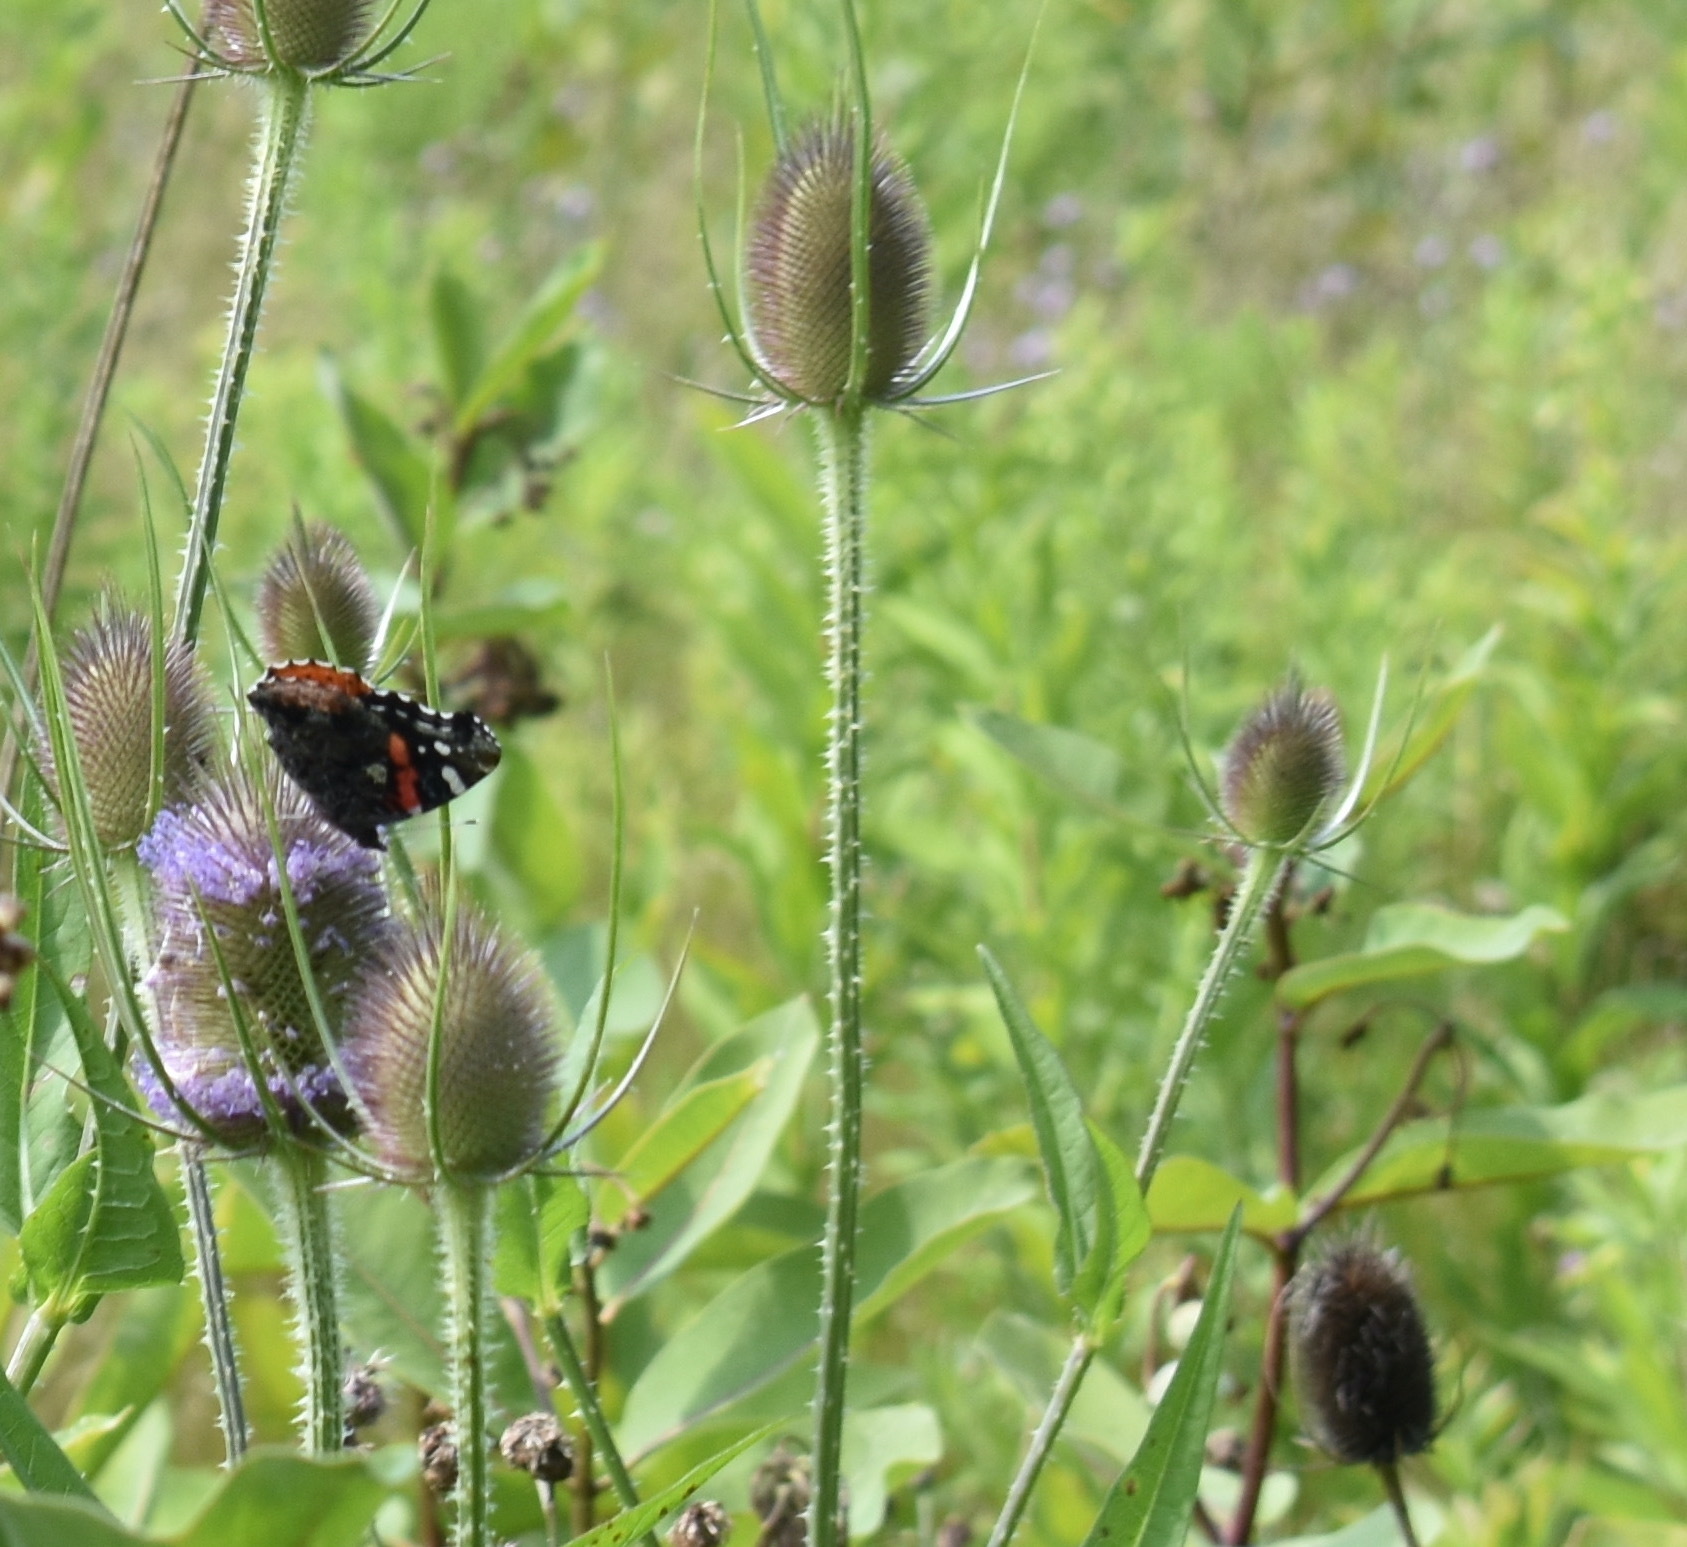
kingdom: Animalia
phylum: Arthropoda
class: Insecta
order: Lepidoptera
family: Nymphalidae
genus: Vanessa
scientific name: Vanessa atalanta
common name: Red admiral
